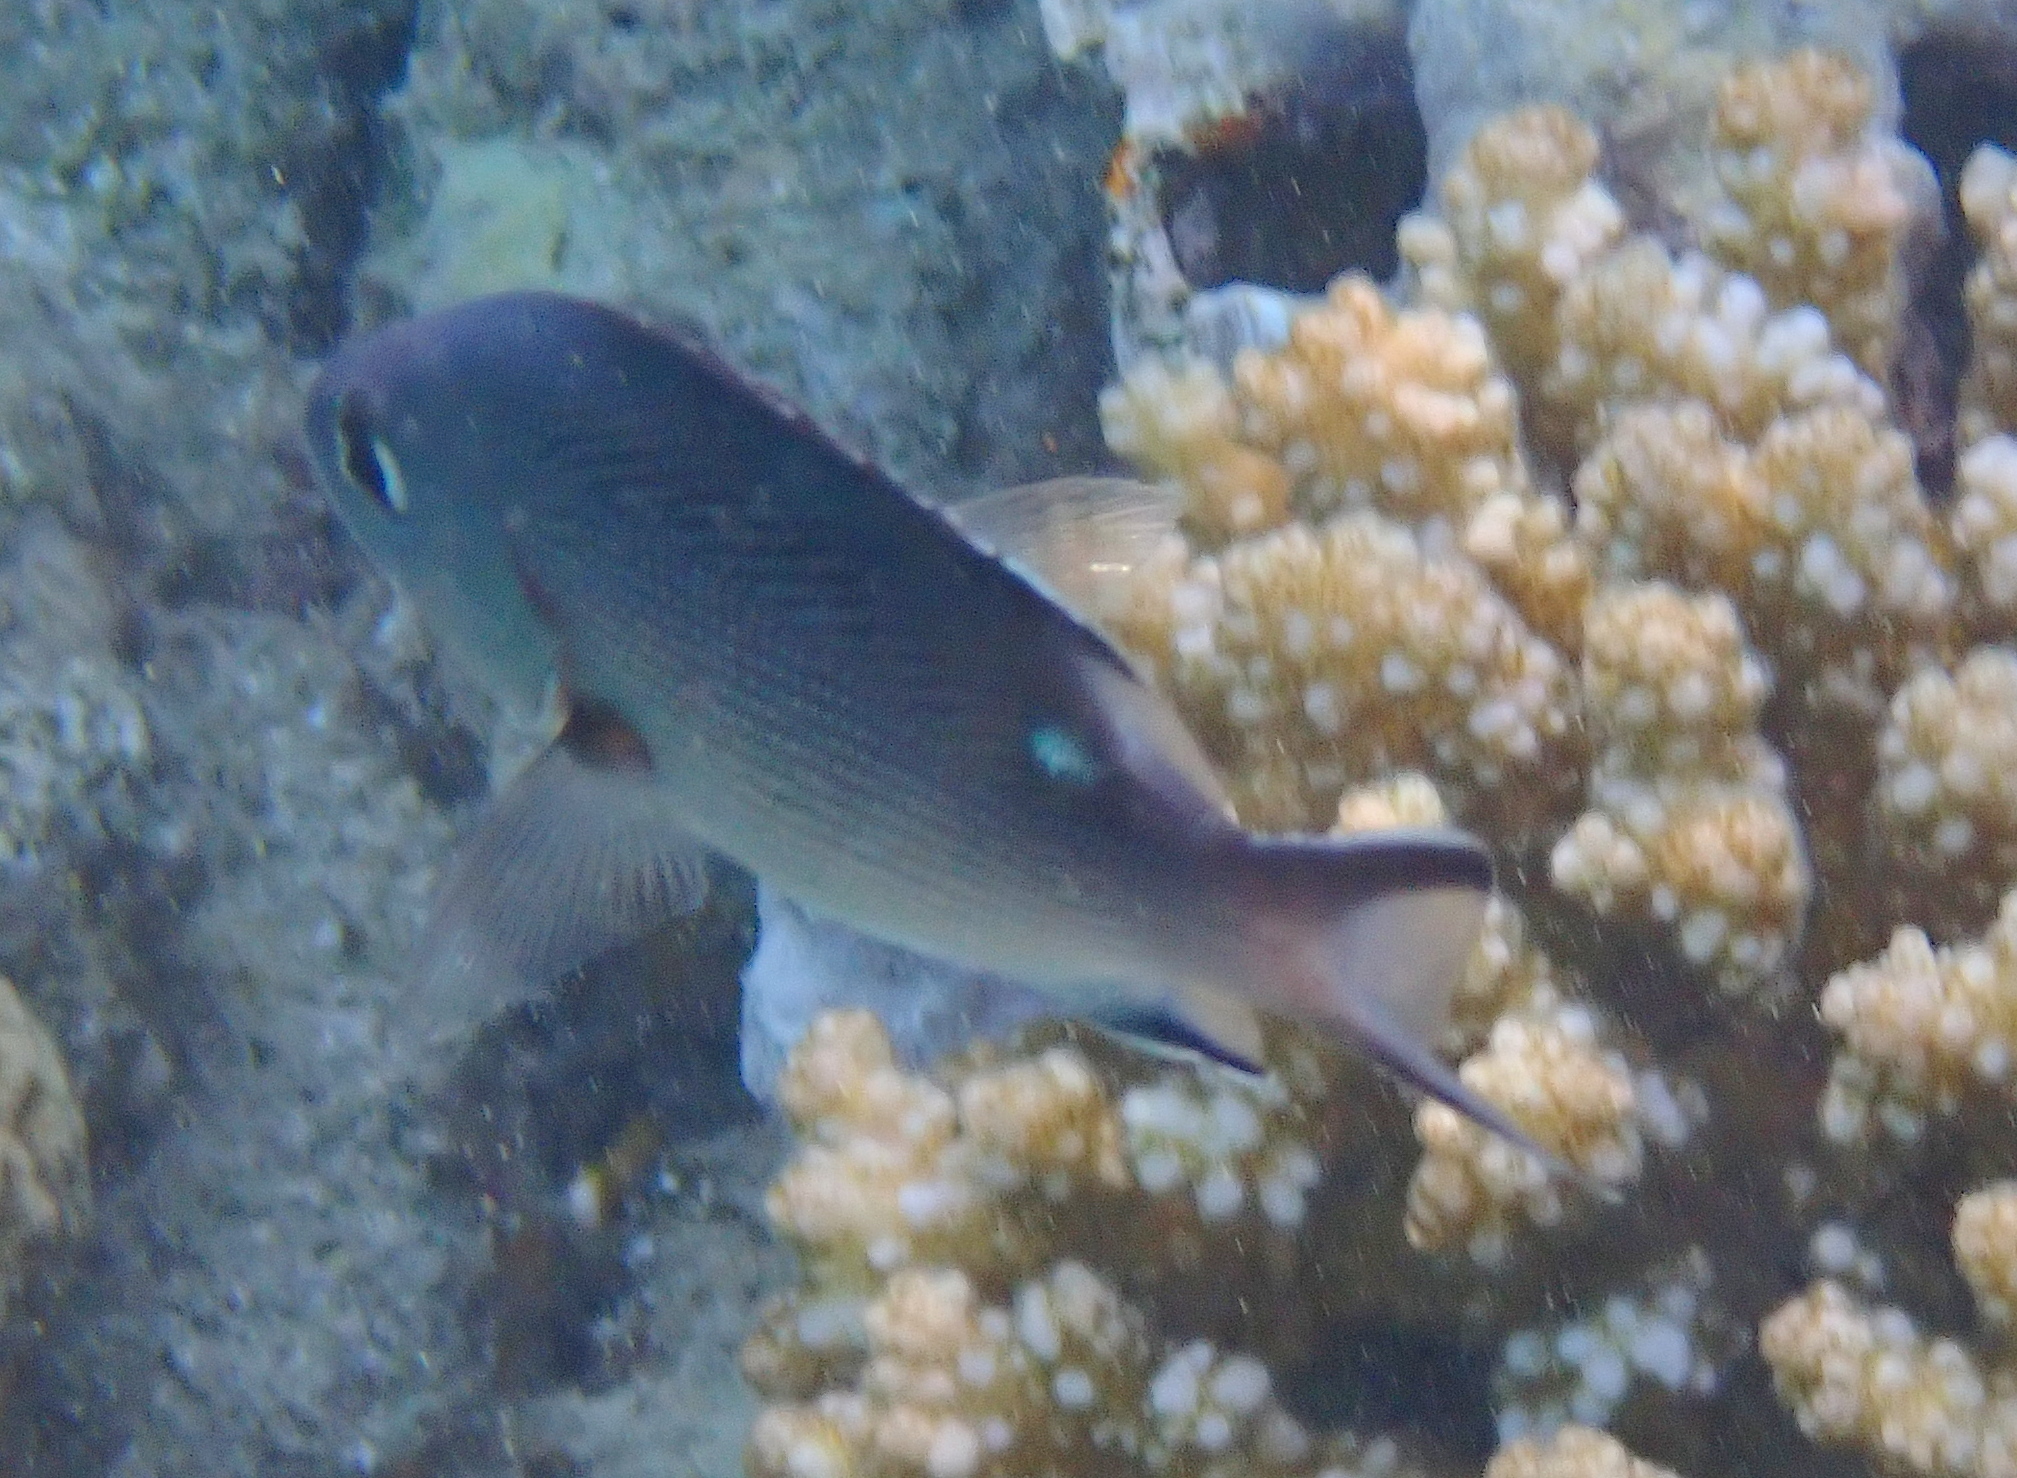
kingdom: Animalia
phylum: Chordata
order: Perciformes
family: Lutjanidae
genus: Lutjanus
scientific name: Lutjanus bohar
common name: Red bass
